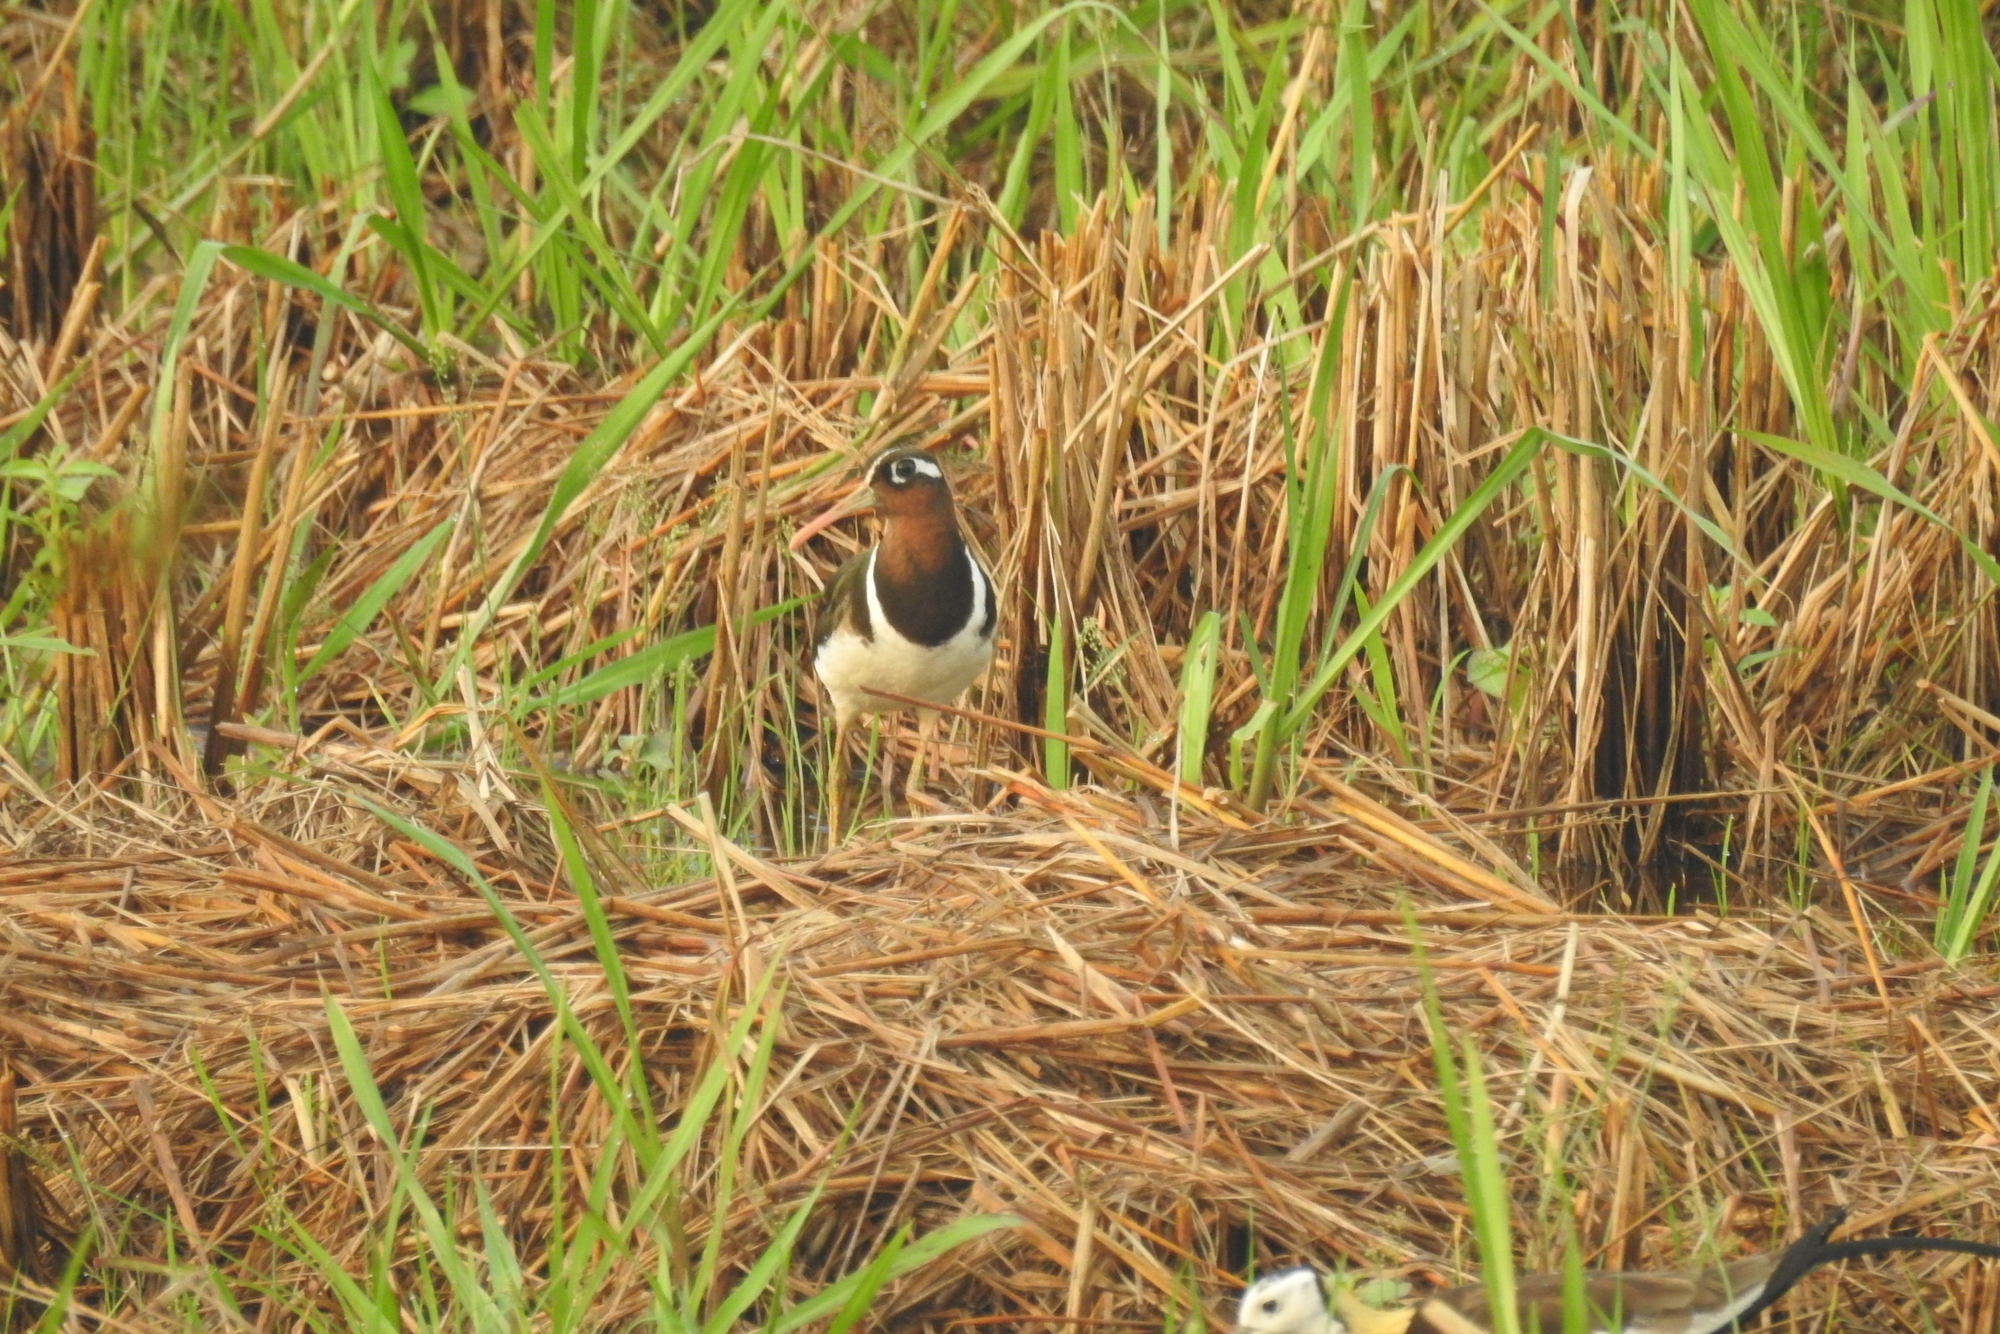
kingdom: Animalia
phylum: Chordata
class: Aves
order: Charadriiformes
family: Rostratulidae
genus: Rostratula
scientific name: Rostratula benghalensis
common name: Greater painted-snipe
